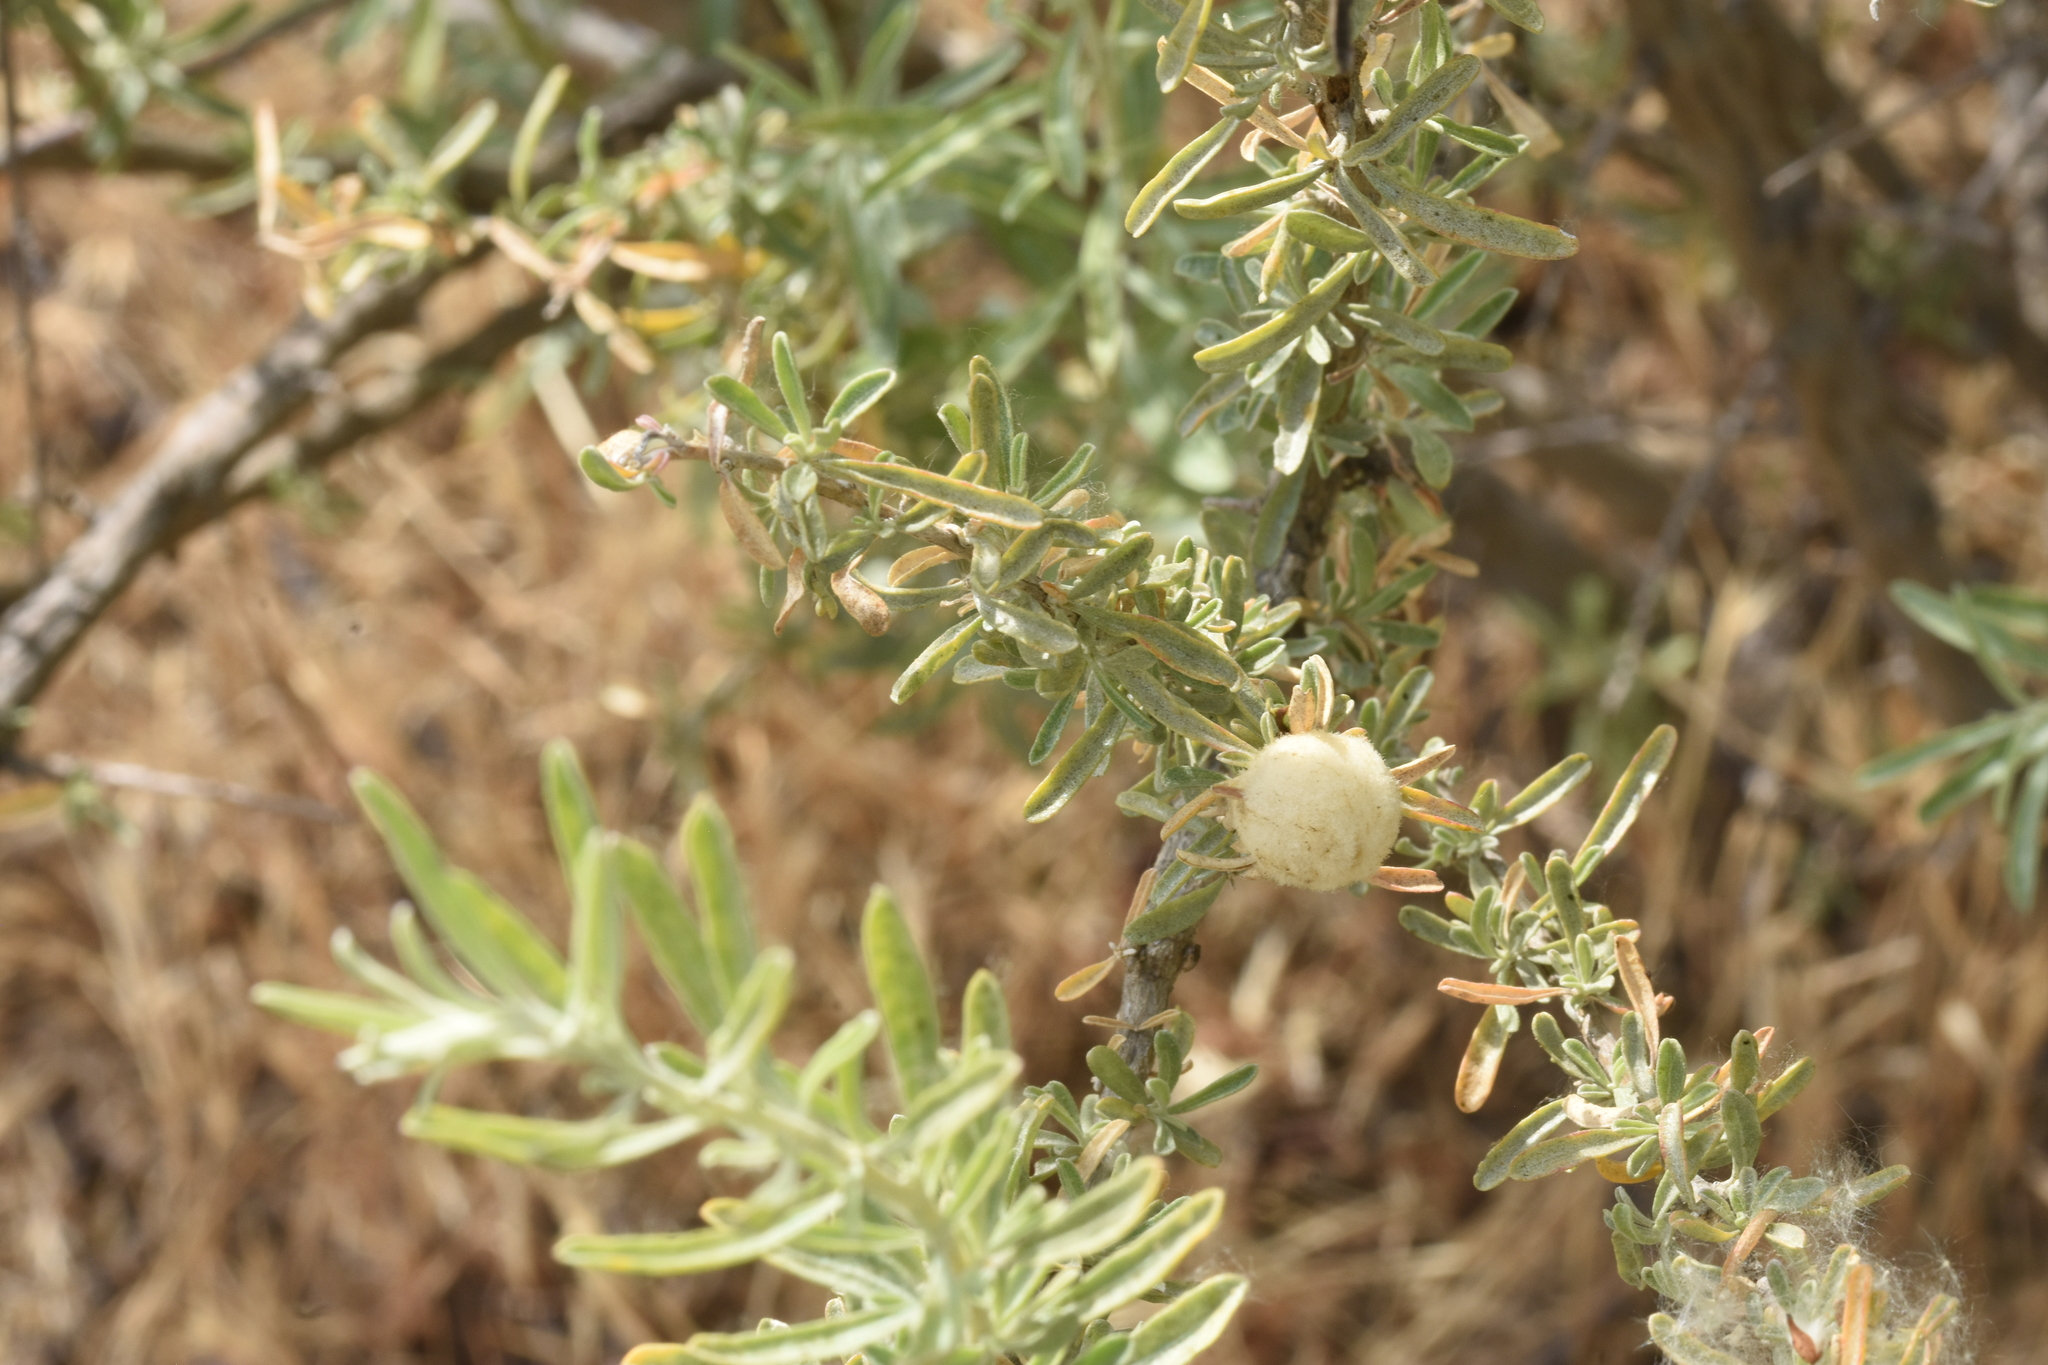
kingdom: Animalia
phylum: Arthropoda
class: Insecta
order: Diptera
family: Cecidomyiidae
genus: Asphondylia
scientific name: Asphondylia neomexicana
